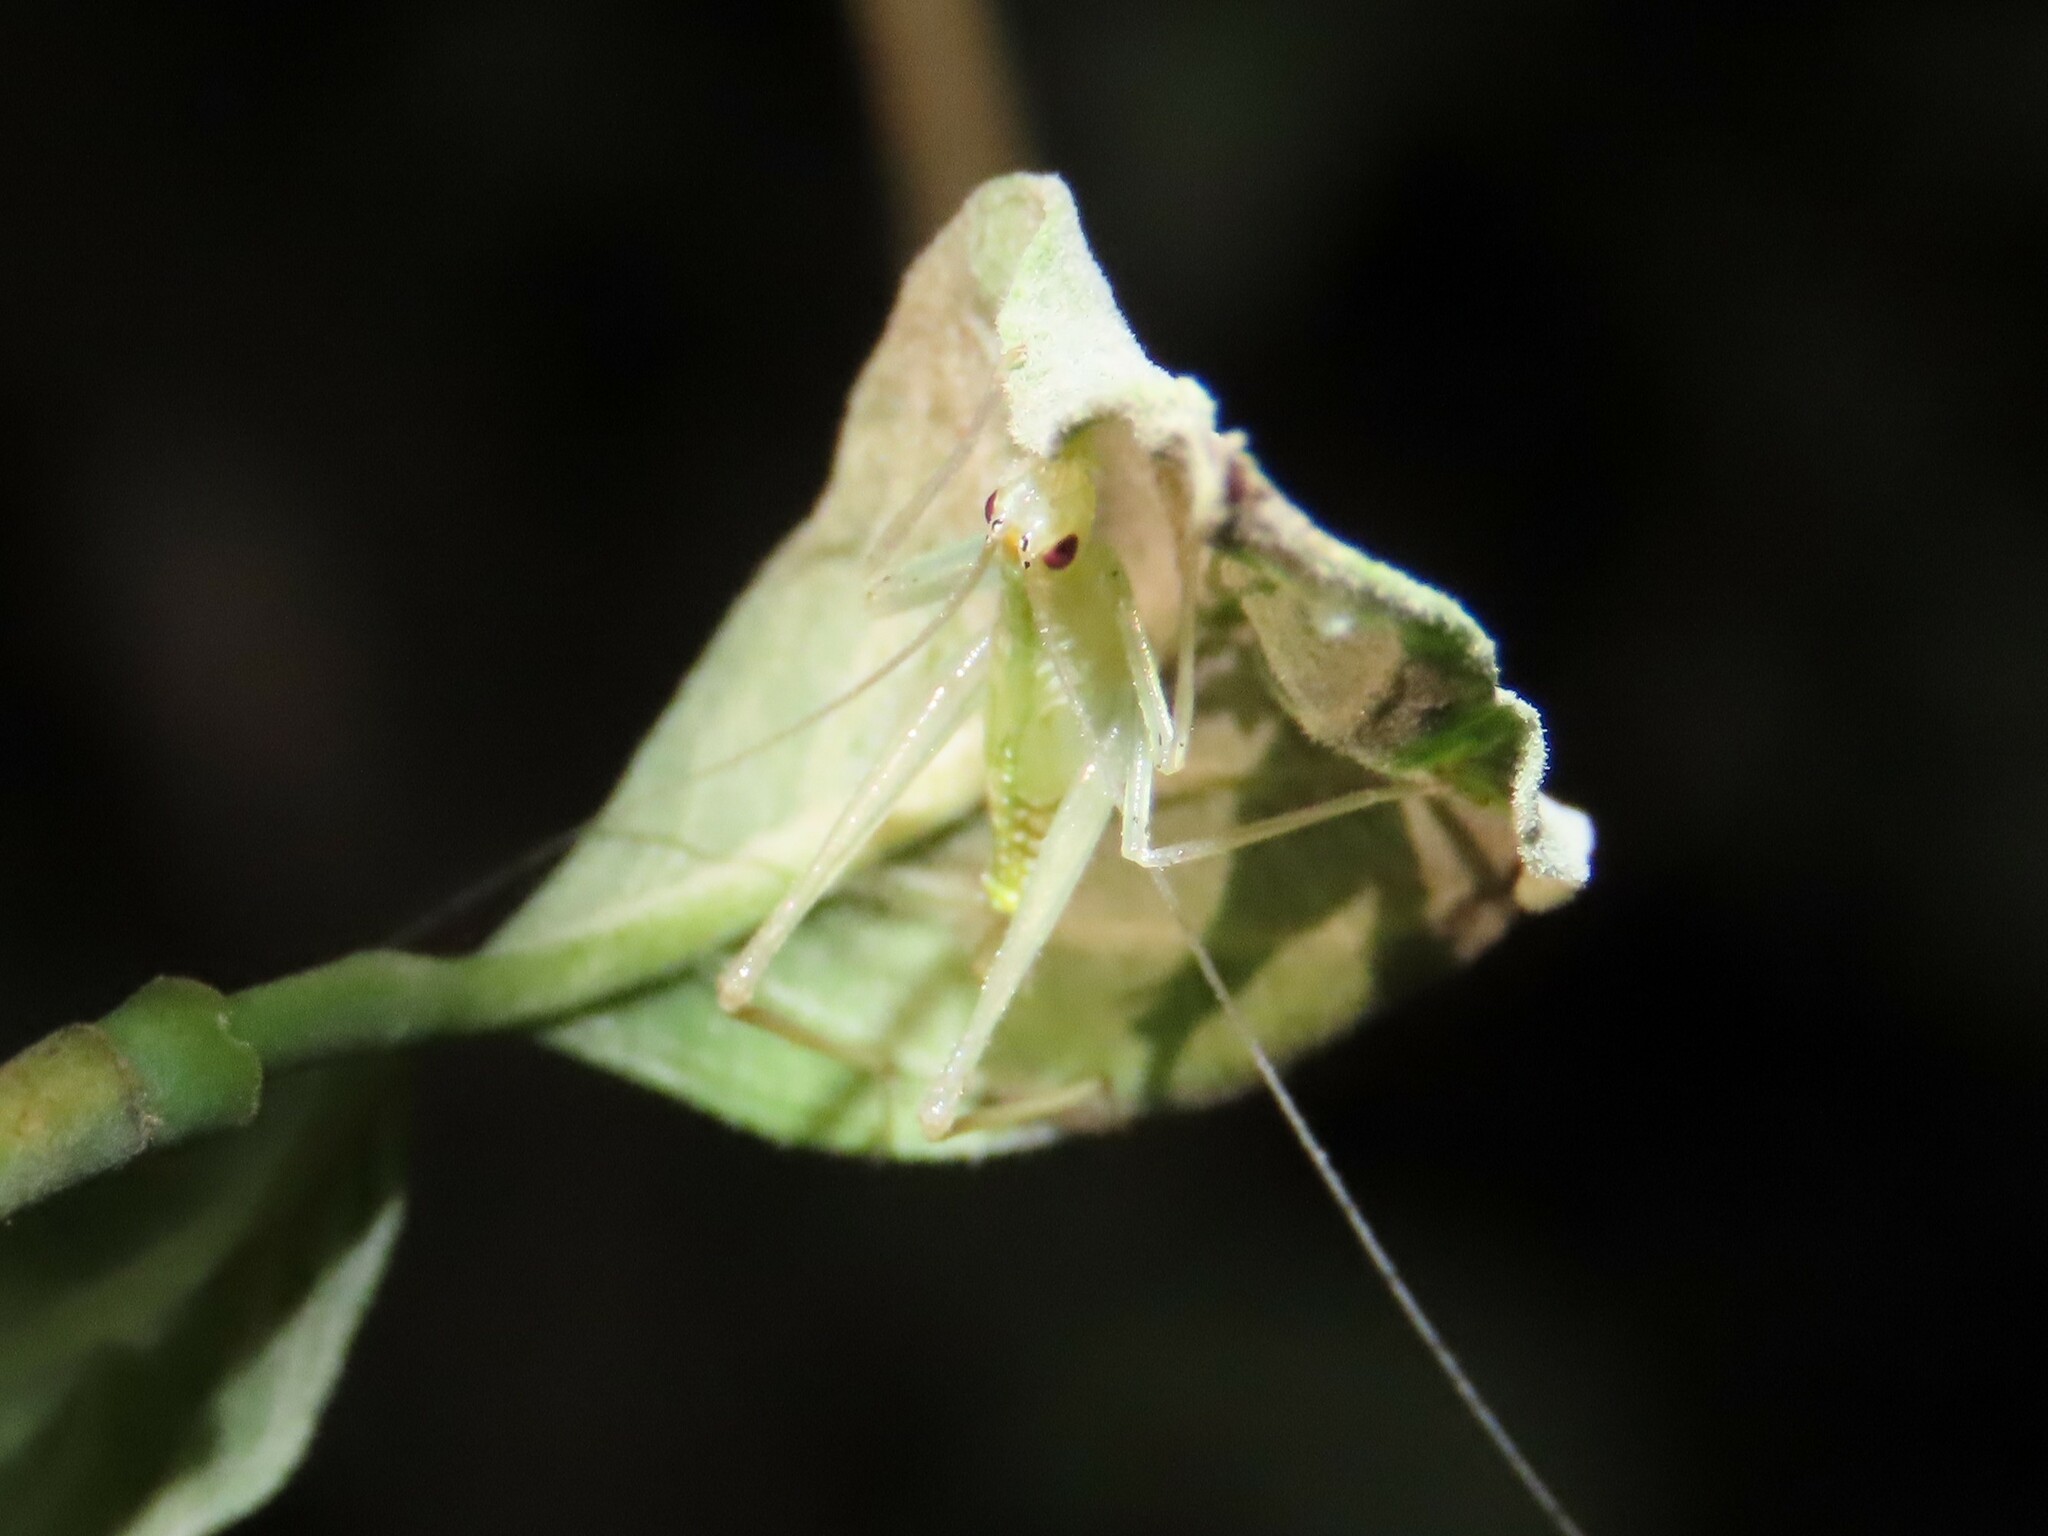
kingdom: Animalia
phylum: Arthropoda
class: Insecta
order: Orthoptera
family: Gryllidae
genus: Oecanthus
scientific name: Oecanthus niveus
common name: Narrow-winged tree cricket
